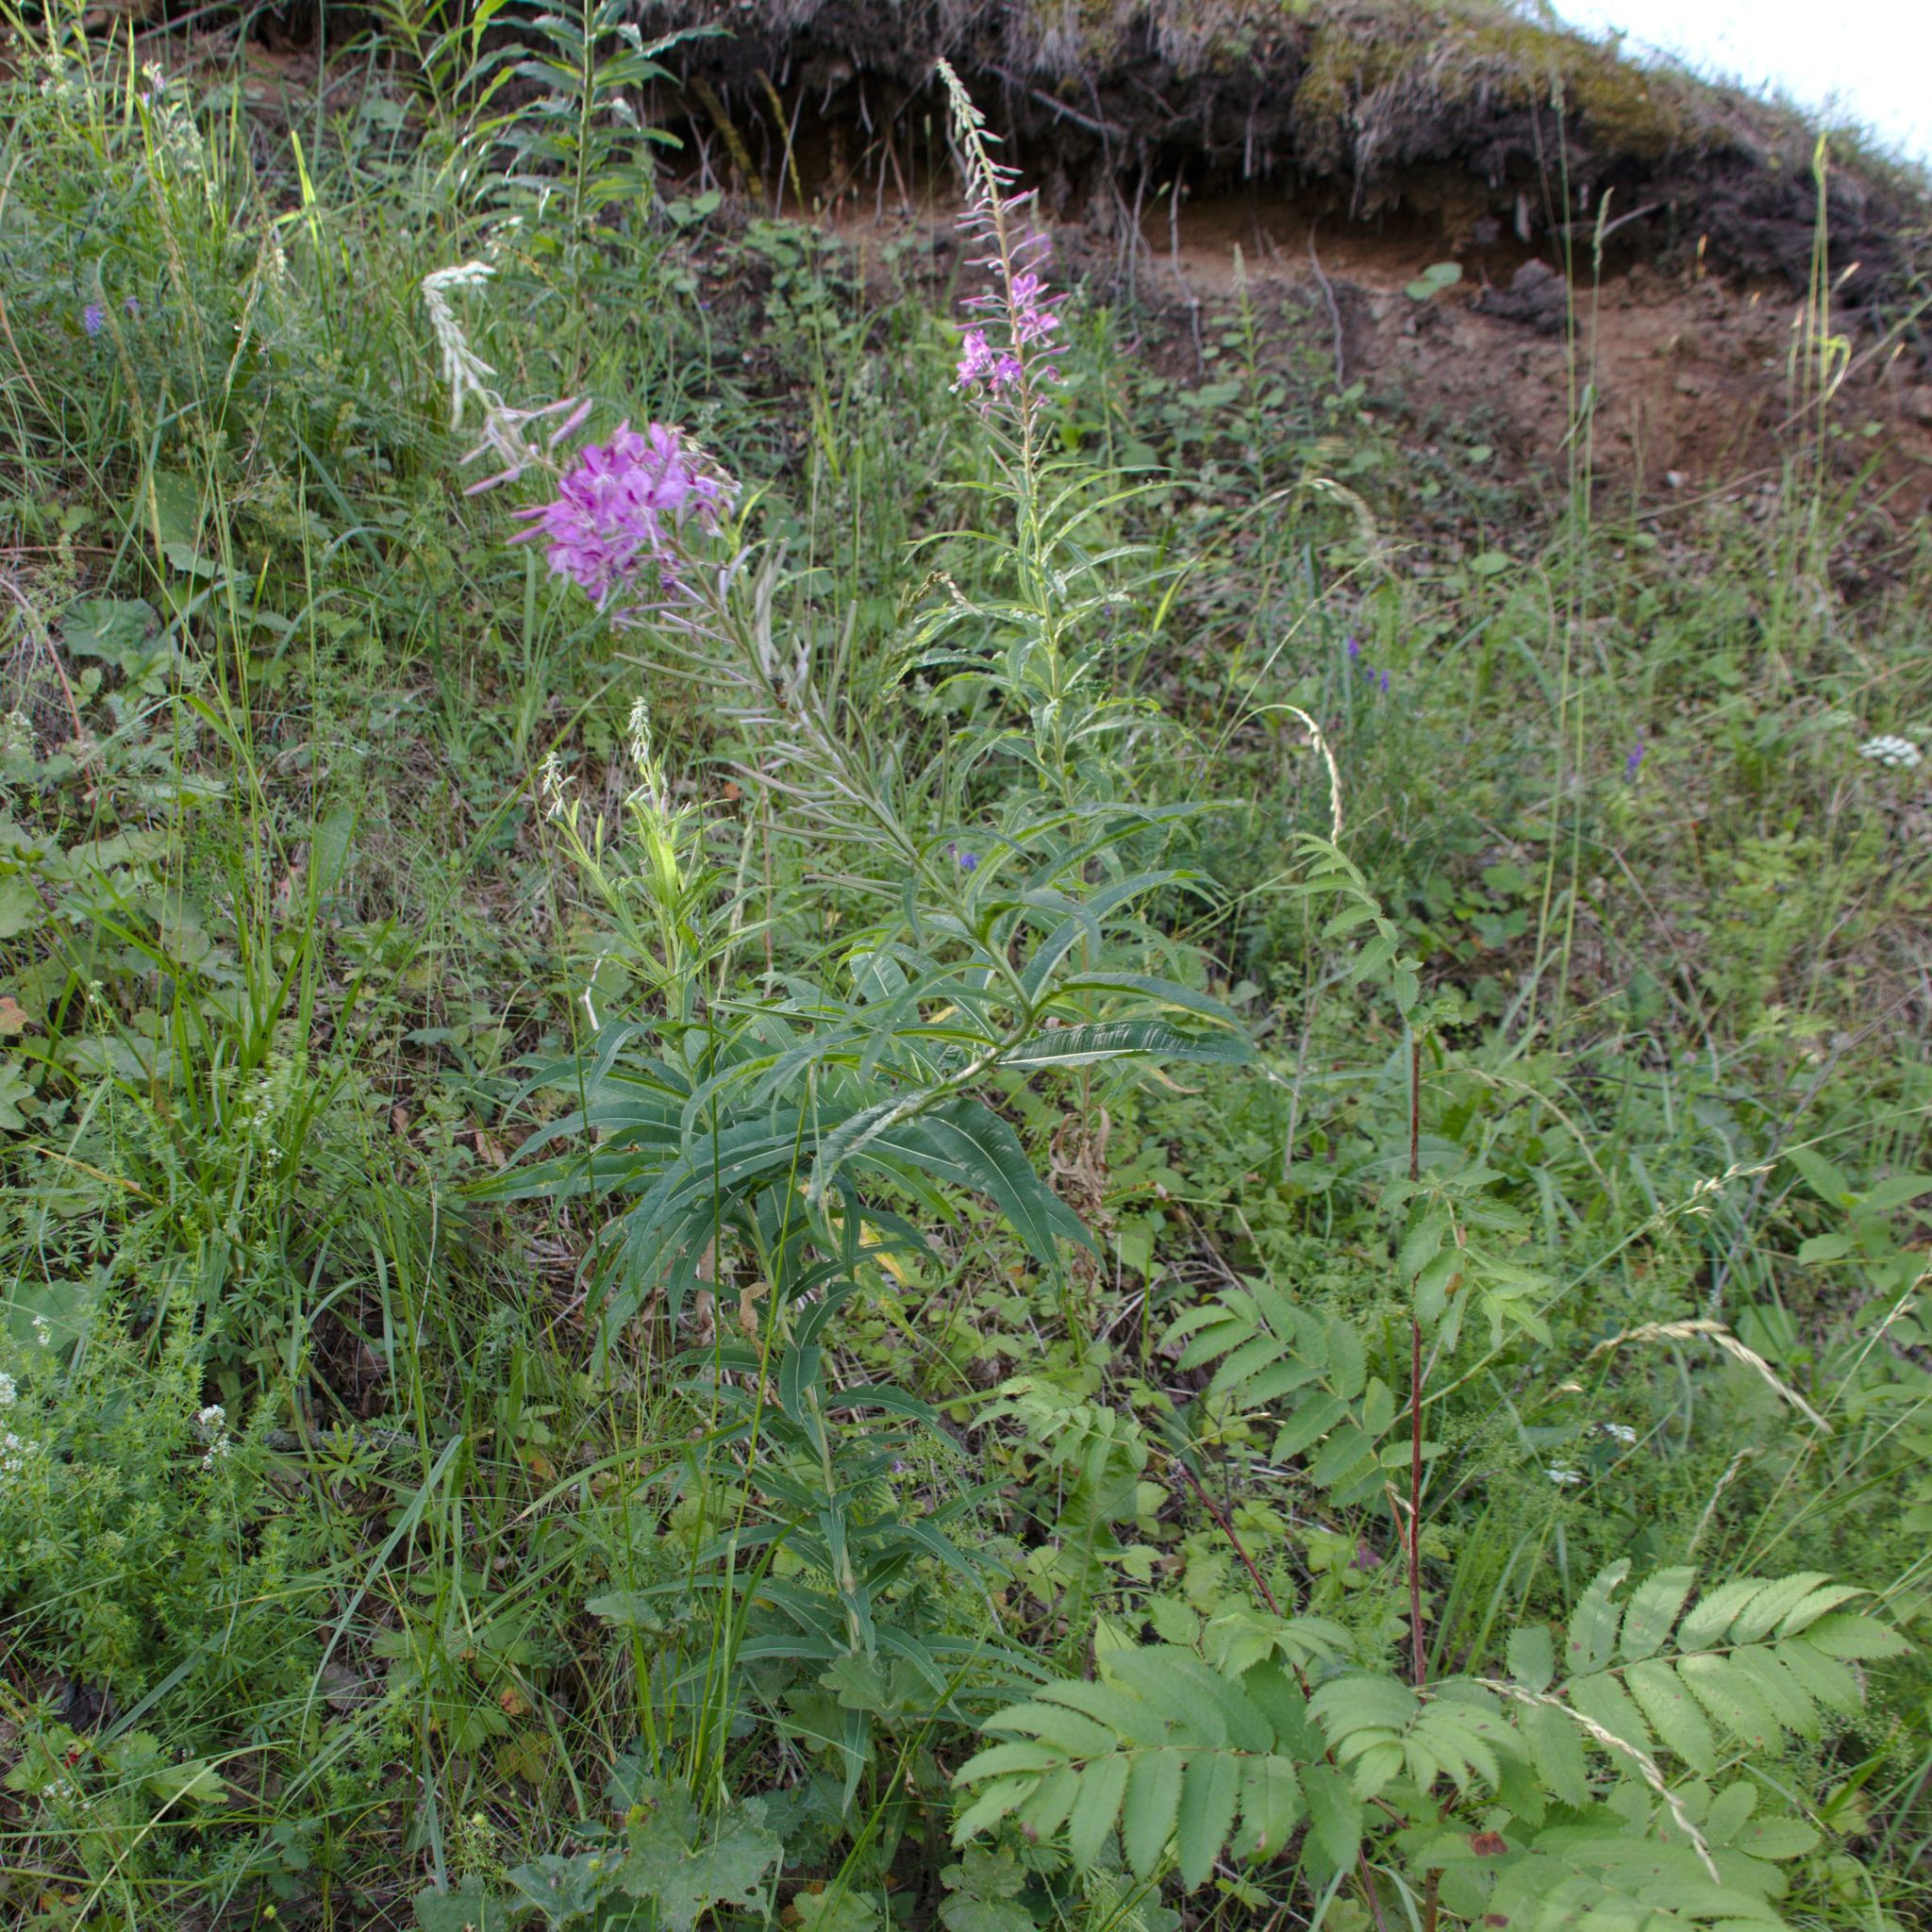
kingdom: Plantae
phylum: Tracheophyta
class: Magnoliopsida
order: Myrtales
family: Onagraceae
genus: Chamaenerion
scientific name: Chamaenerion angustifolium
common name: Fireweed
